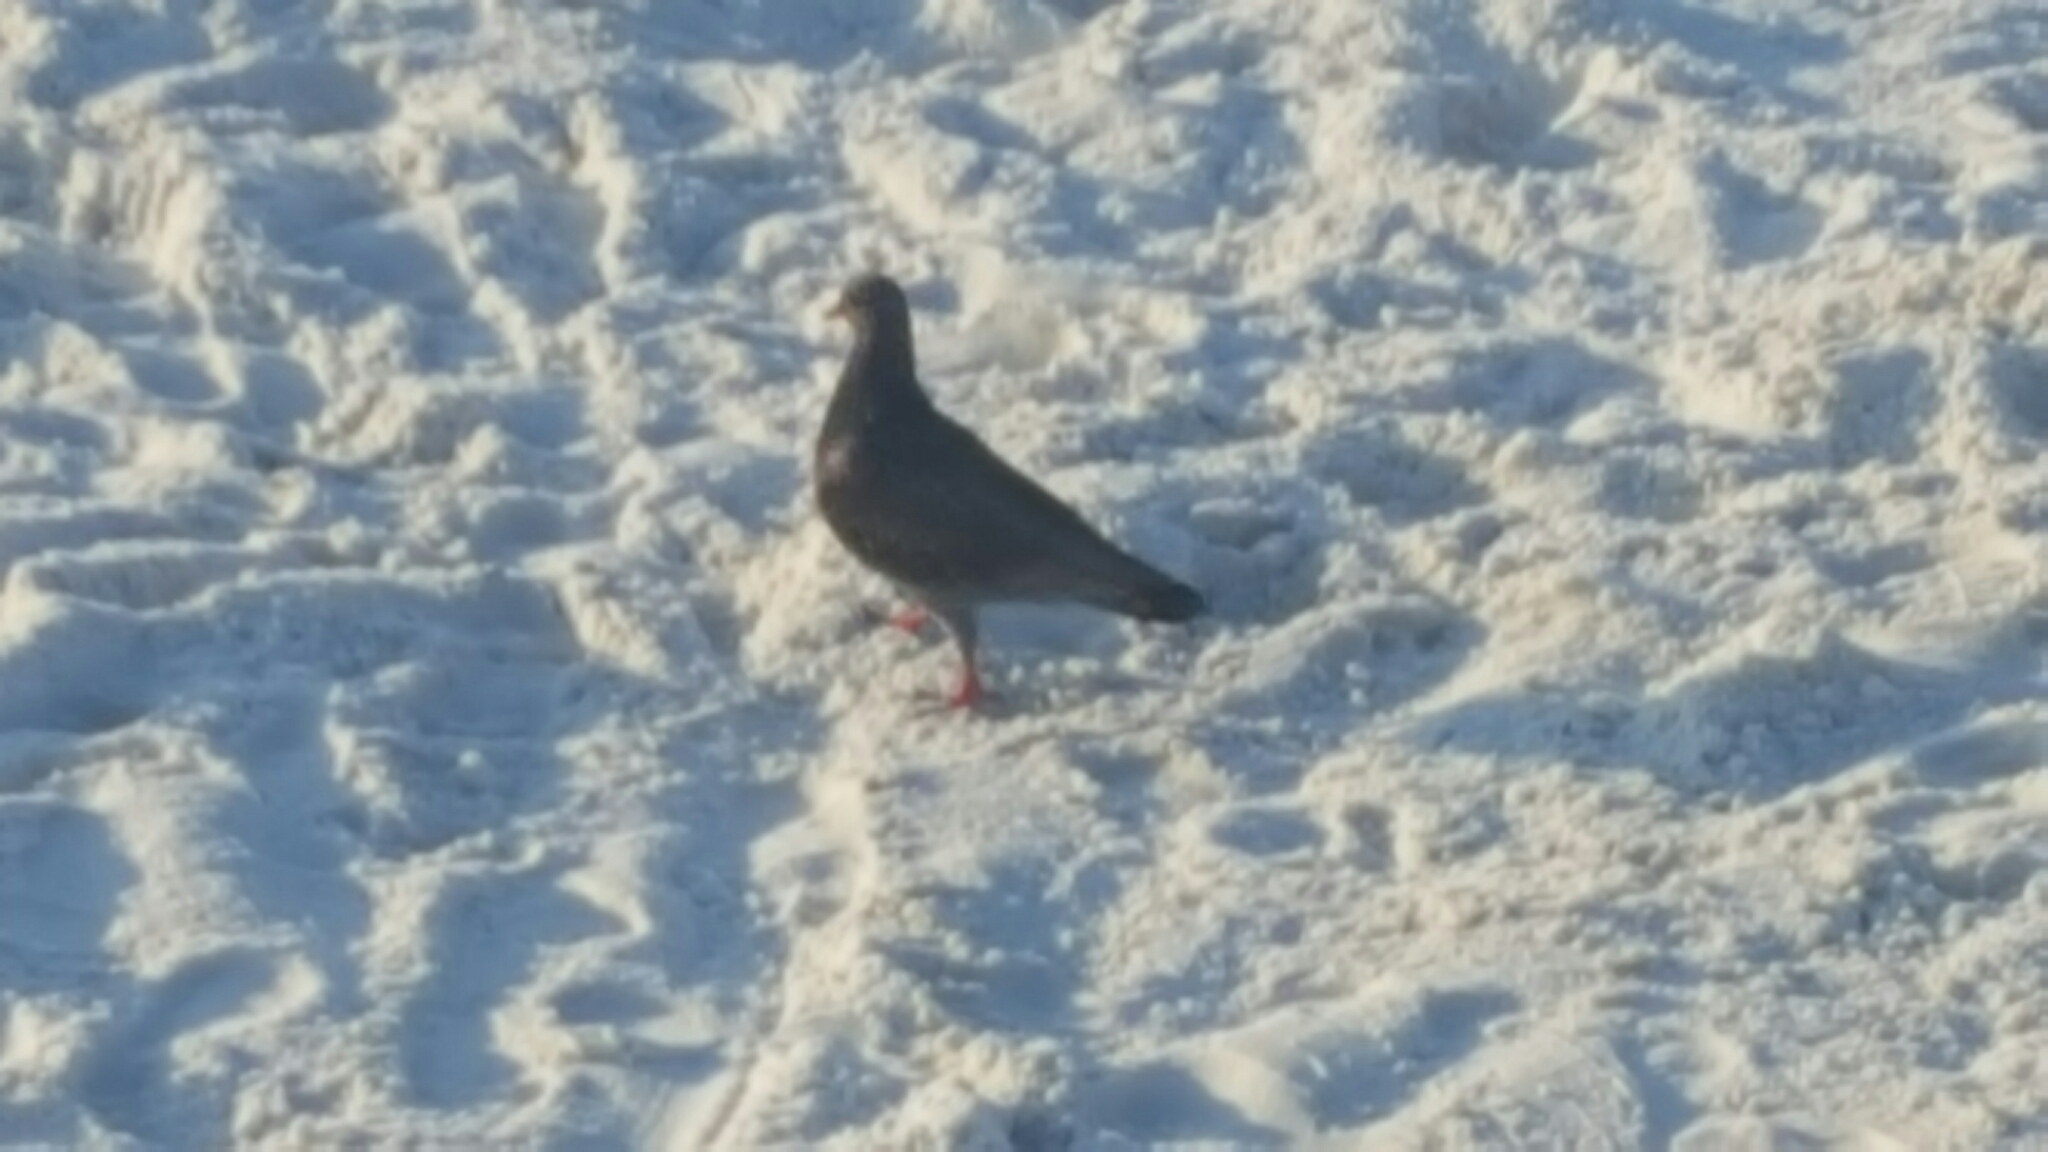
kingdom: Animalia
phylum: Chordata
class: Aves
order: Columbiformes
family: Columbidae
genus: Columba
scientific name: Columba livia
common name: Rock pigeon
